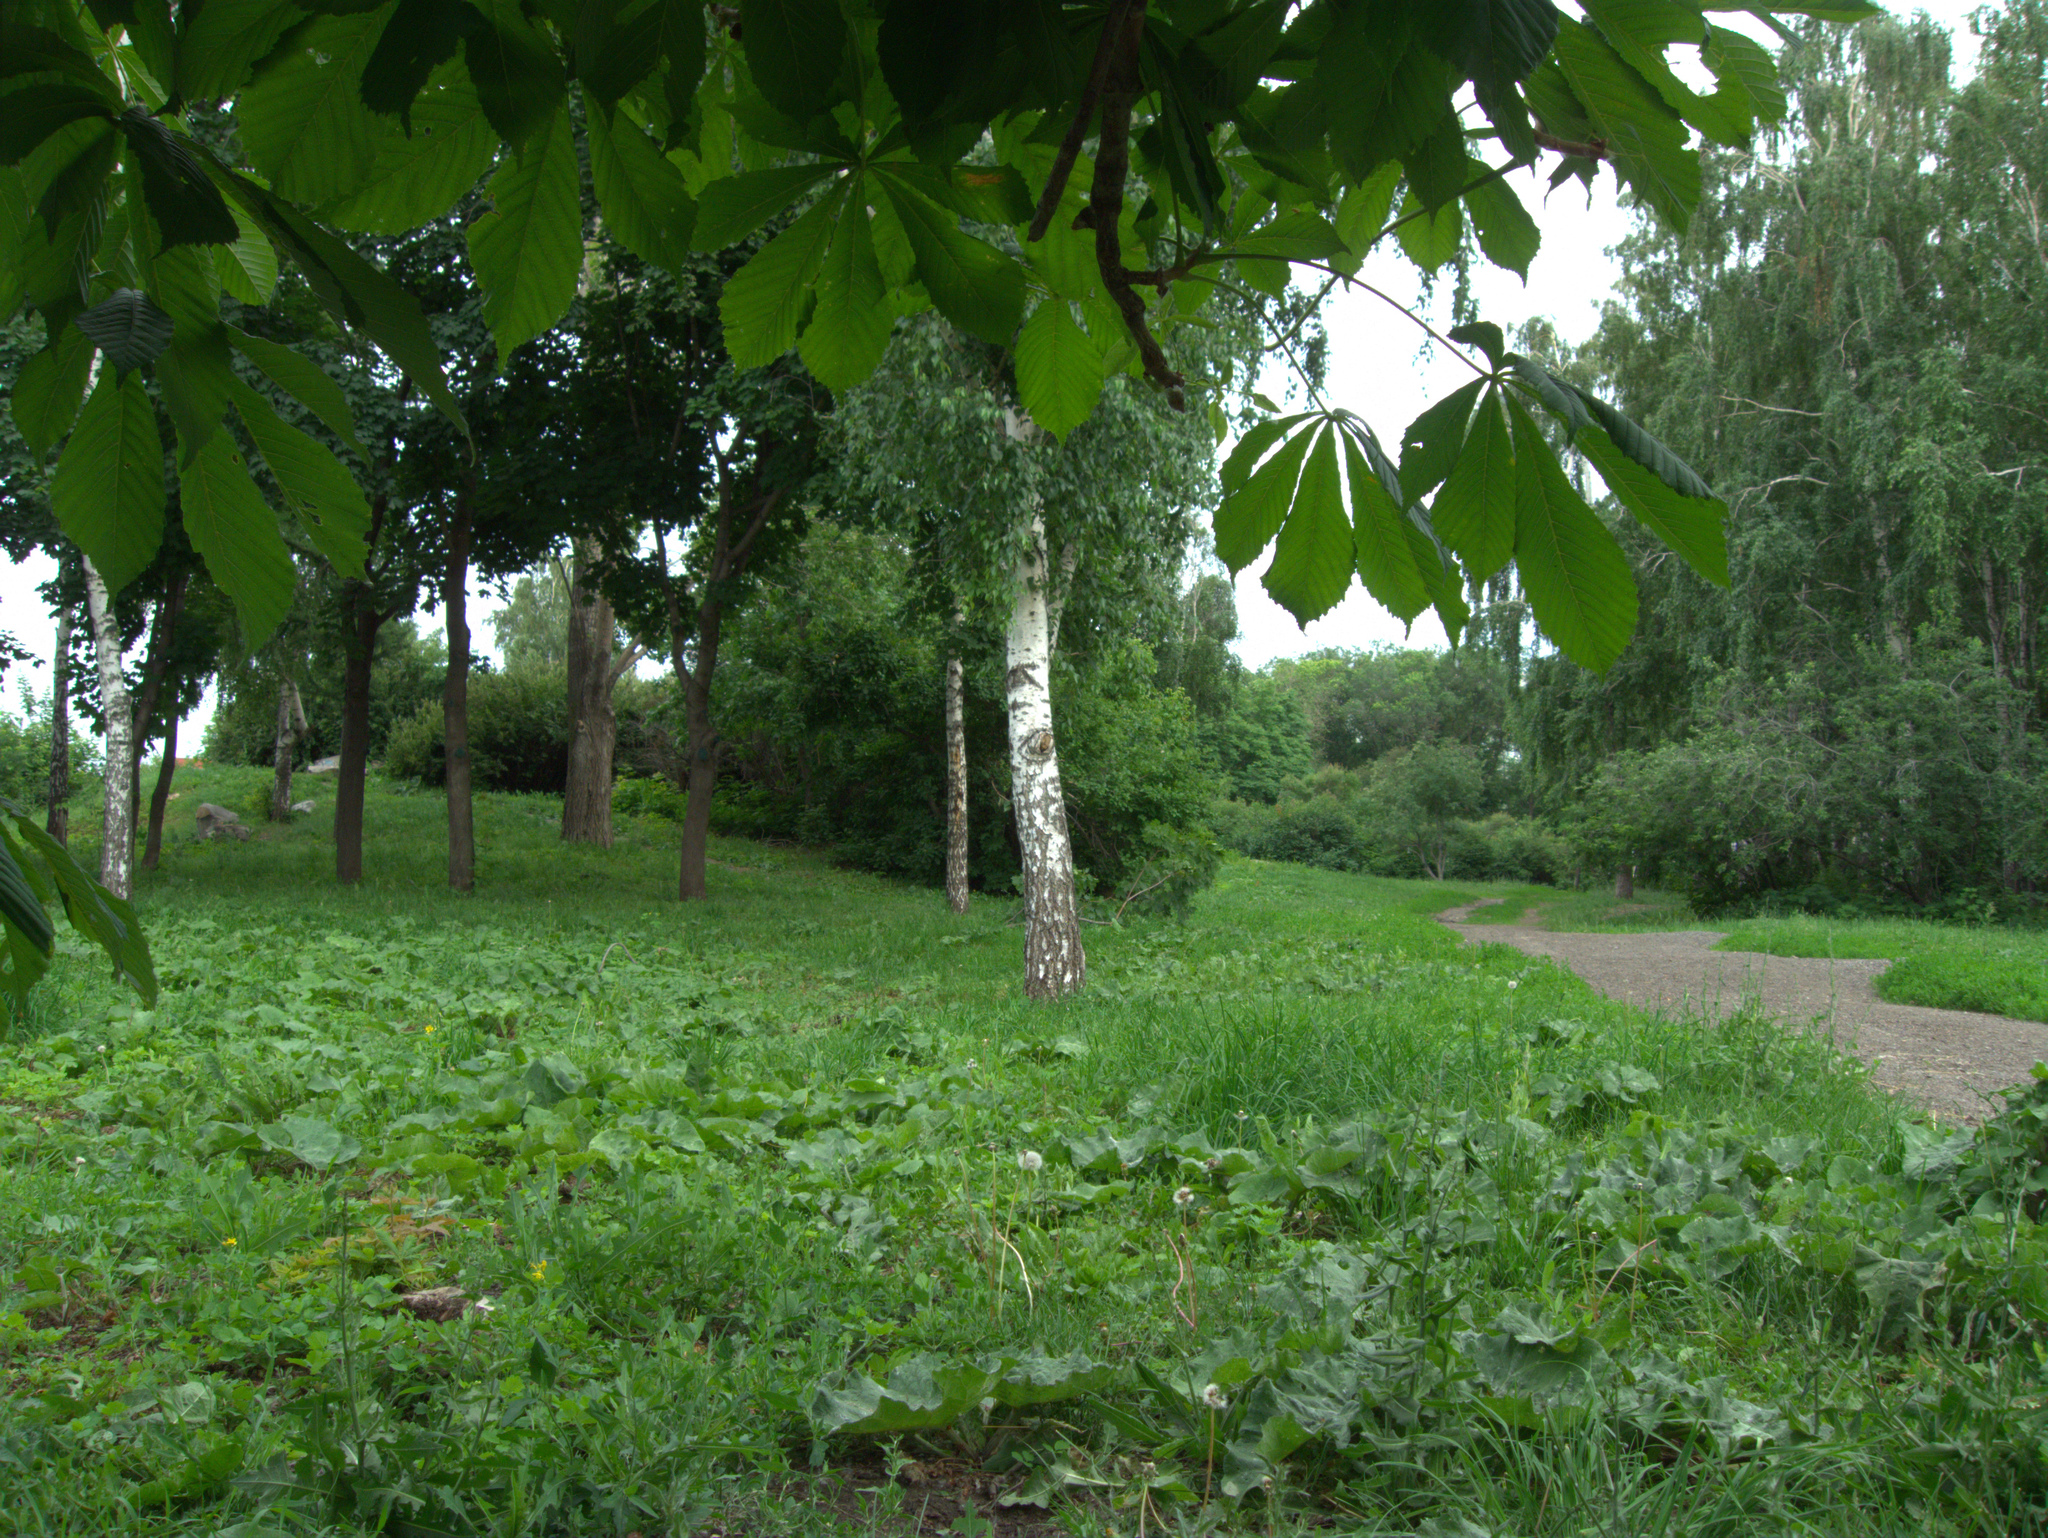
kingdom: Plantae
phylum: Tracheophyta
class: Magnoliopsida
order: Asterales
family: Asteraceae
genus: Lactuca
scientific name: Lactuca serriola
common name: Prickly lettuce
